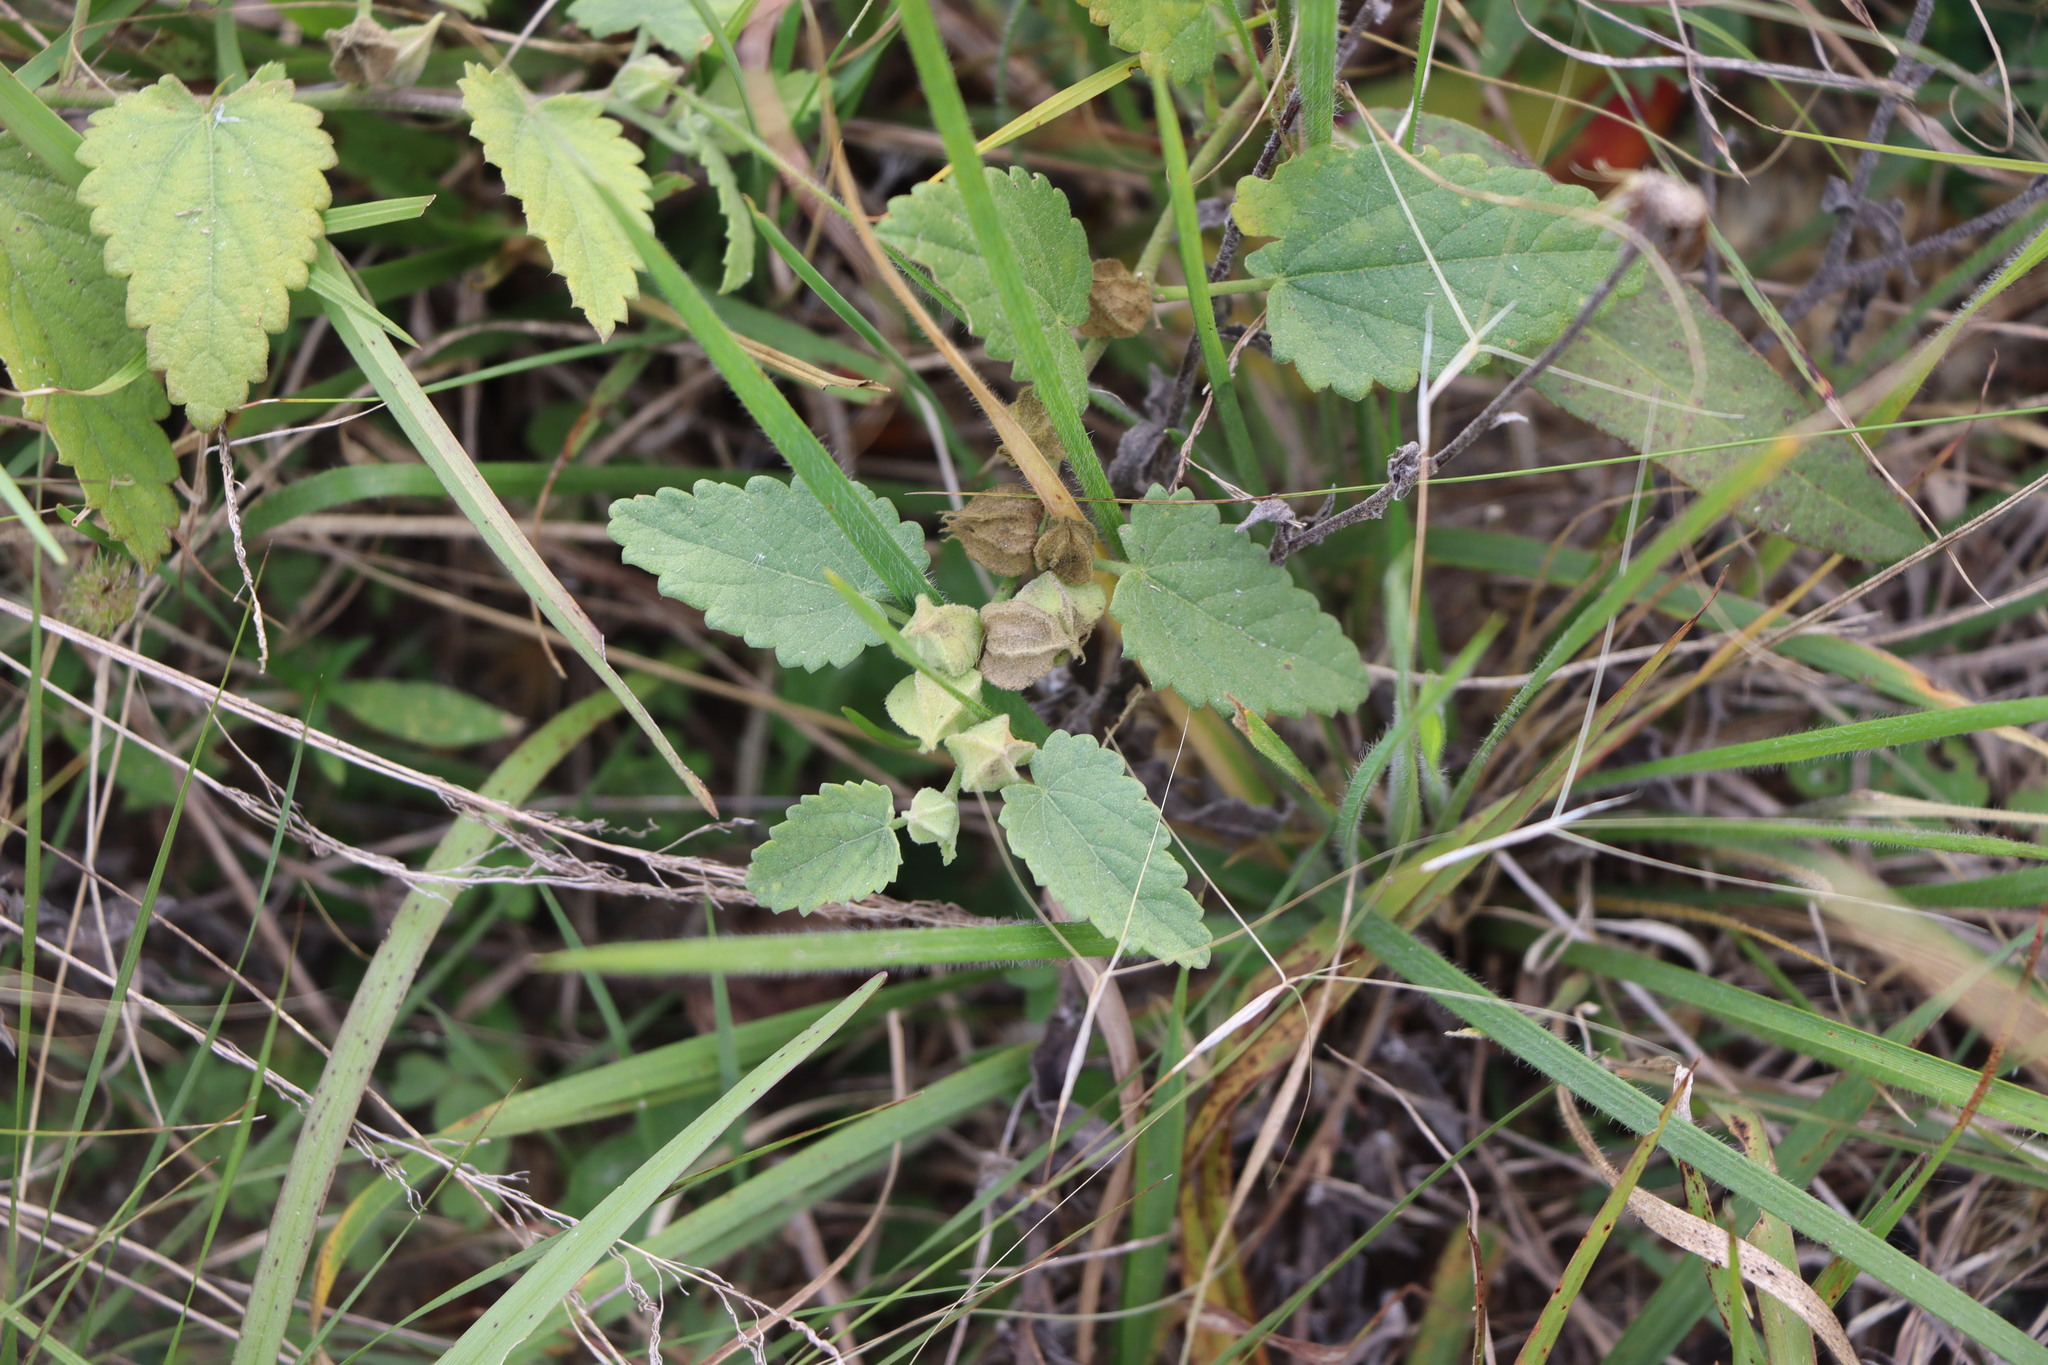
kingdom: Plantae
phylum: Tracheophyta
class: Magnoliopsida
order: Malvales
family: Malvaceae
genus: Krapovickasia
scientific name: Krapovickasia flavescens
